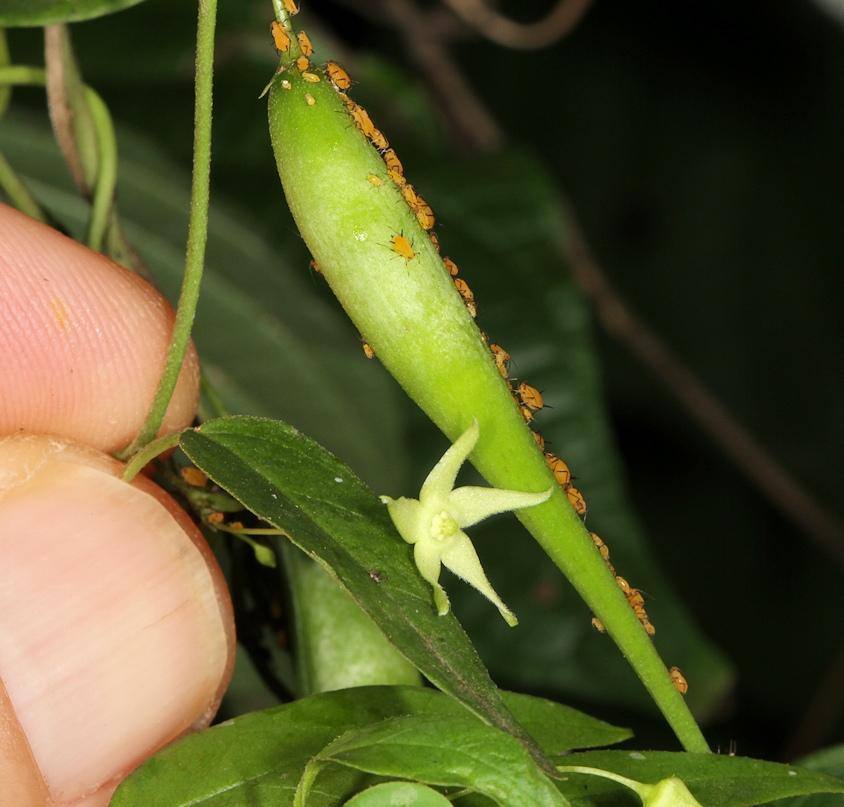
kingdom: Animalia
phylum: Arthropoda
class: Insecta
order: Hemiptera
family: Aphididae
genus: Aphis
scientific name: Aphis nerii
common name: Oleander aphid
